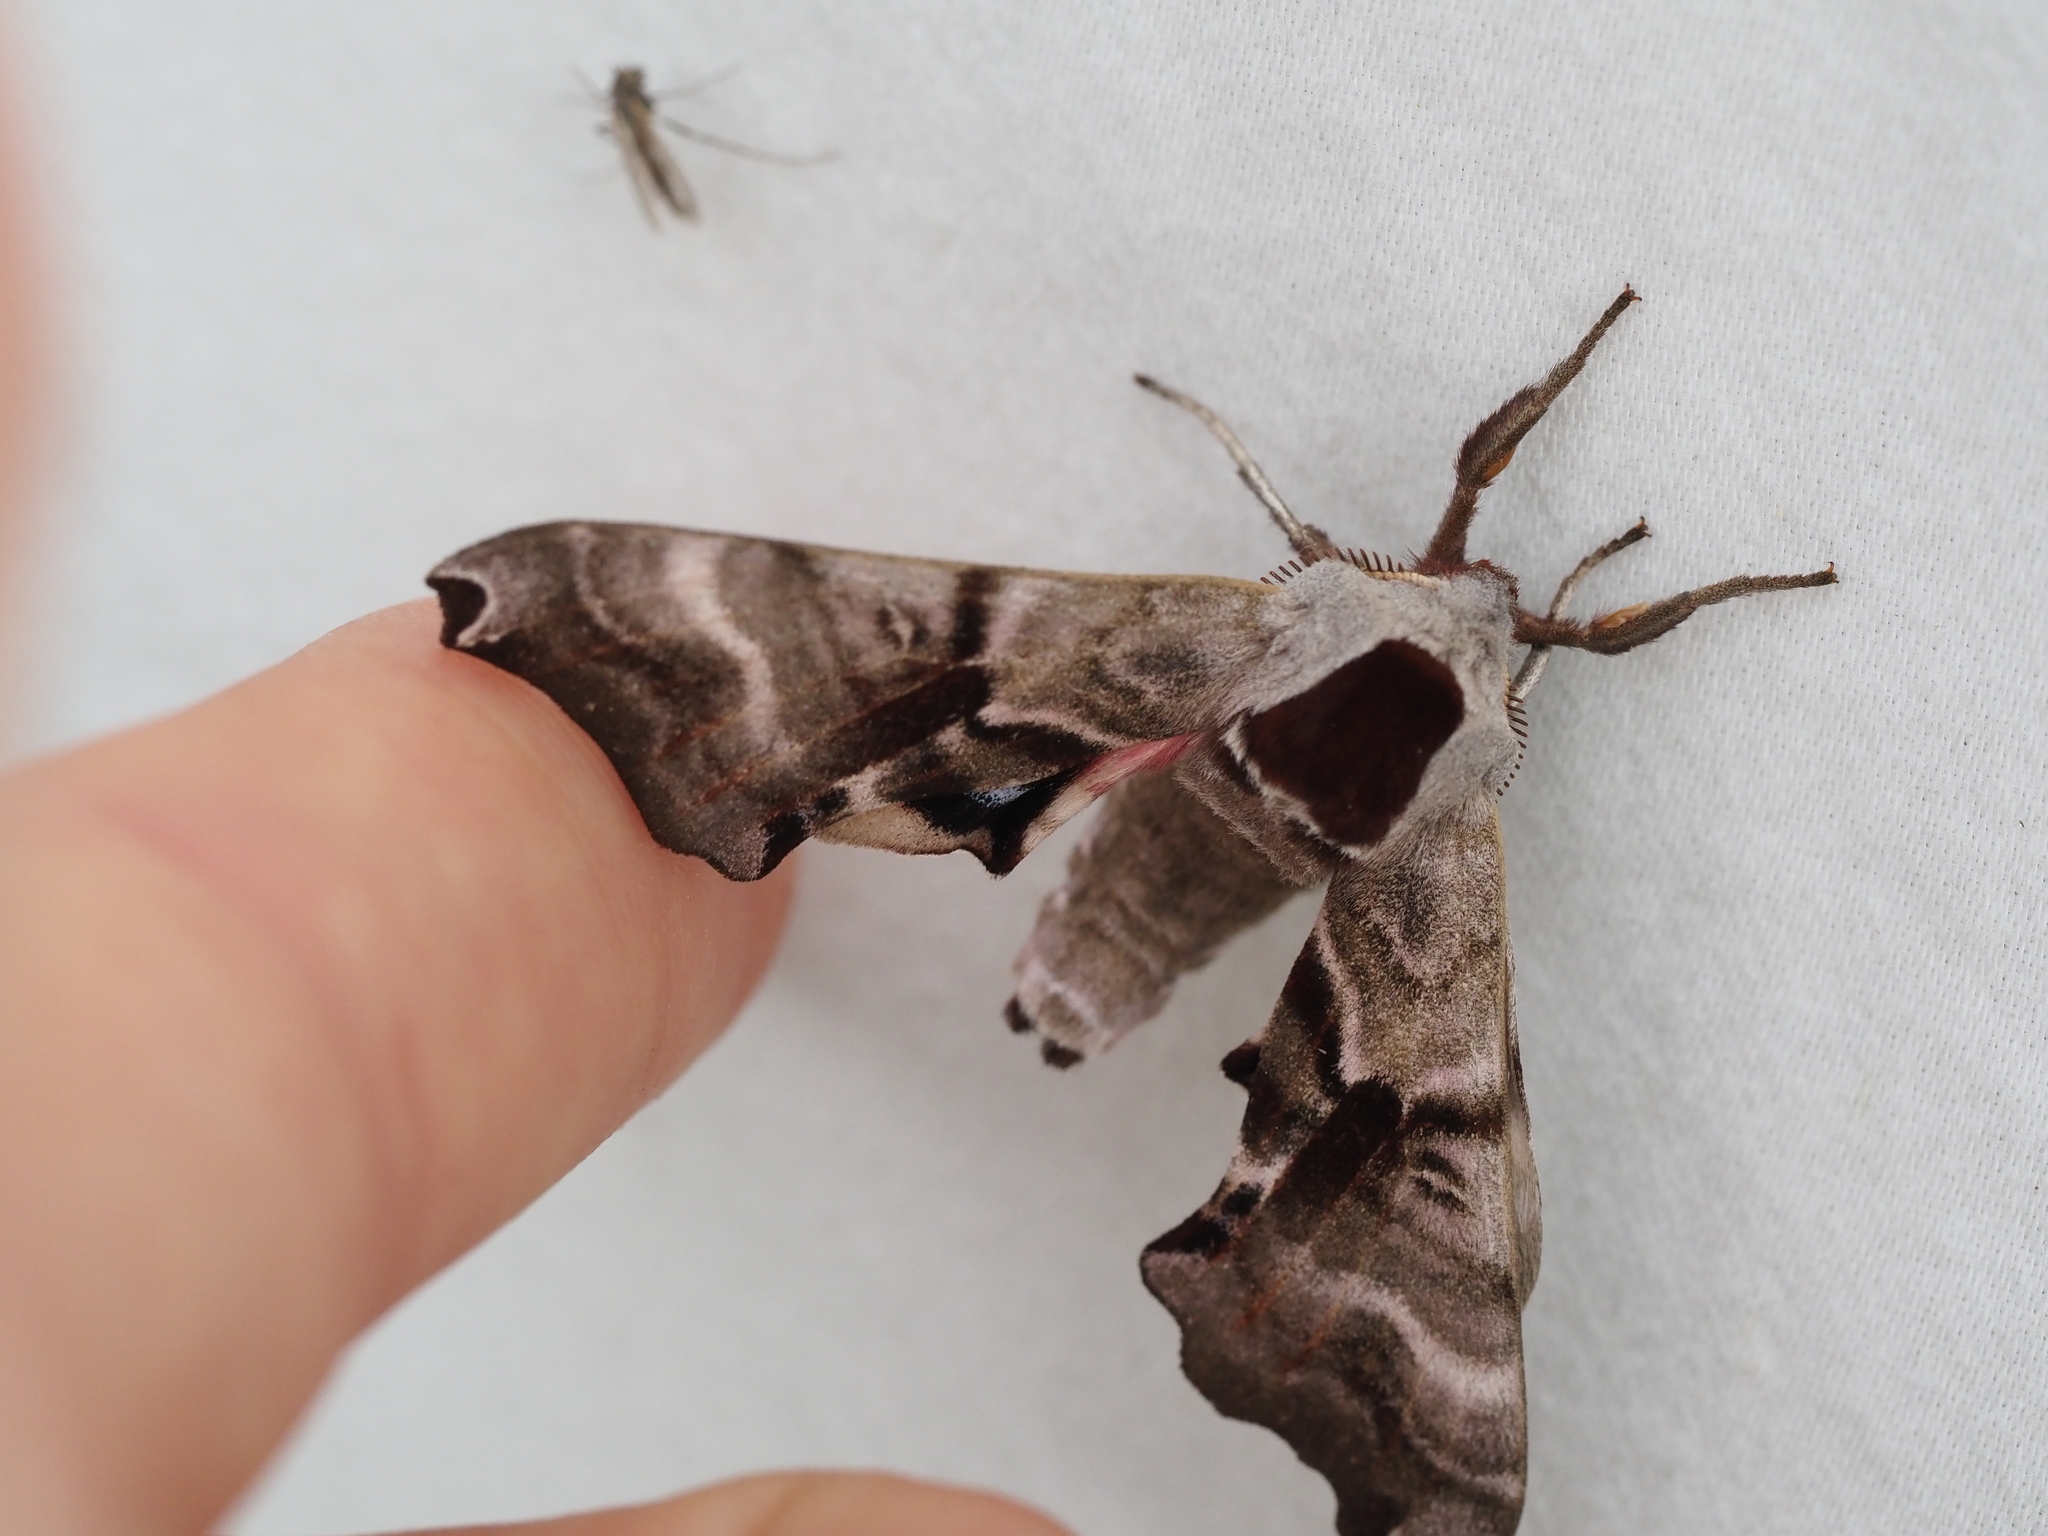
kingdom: Animalia
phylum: Arthropoda
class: Insecta
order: Lepidoptera
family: Sphingidae
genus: Smerinthus
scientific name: Smerinthus jamaicensis
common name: Twin spotted sphinx
